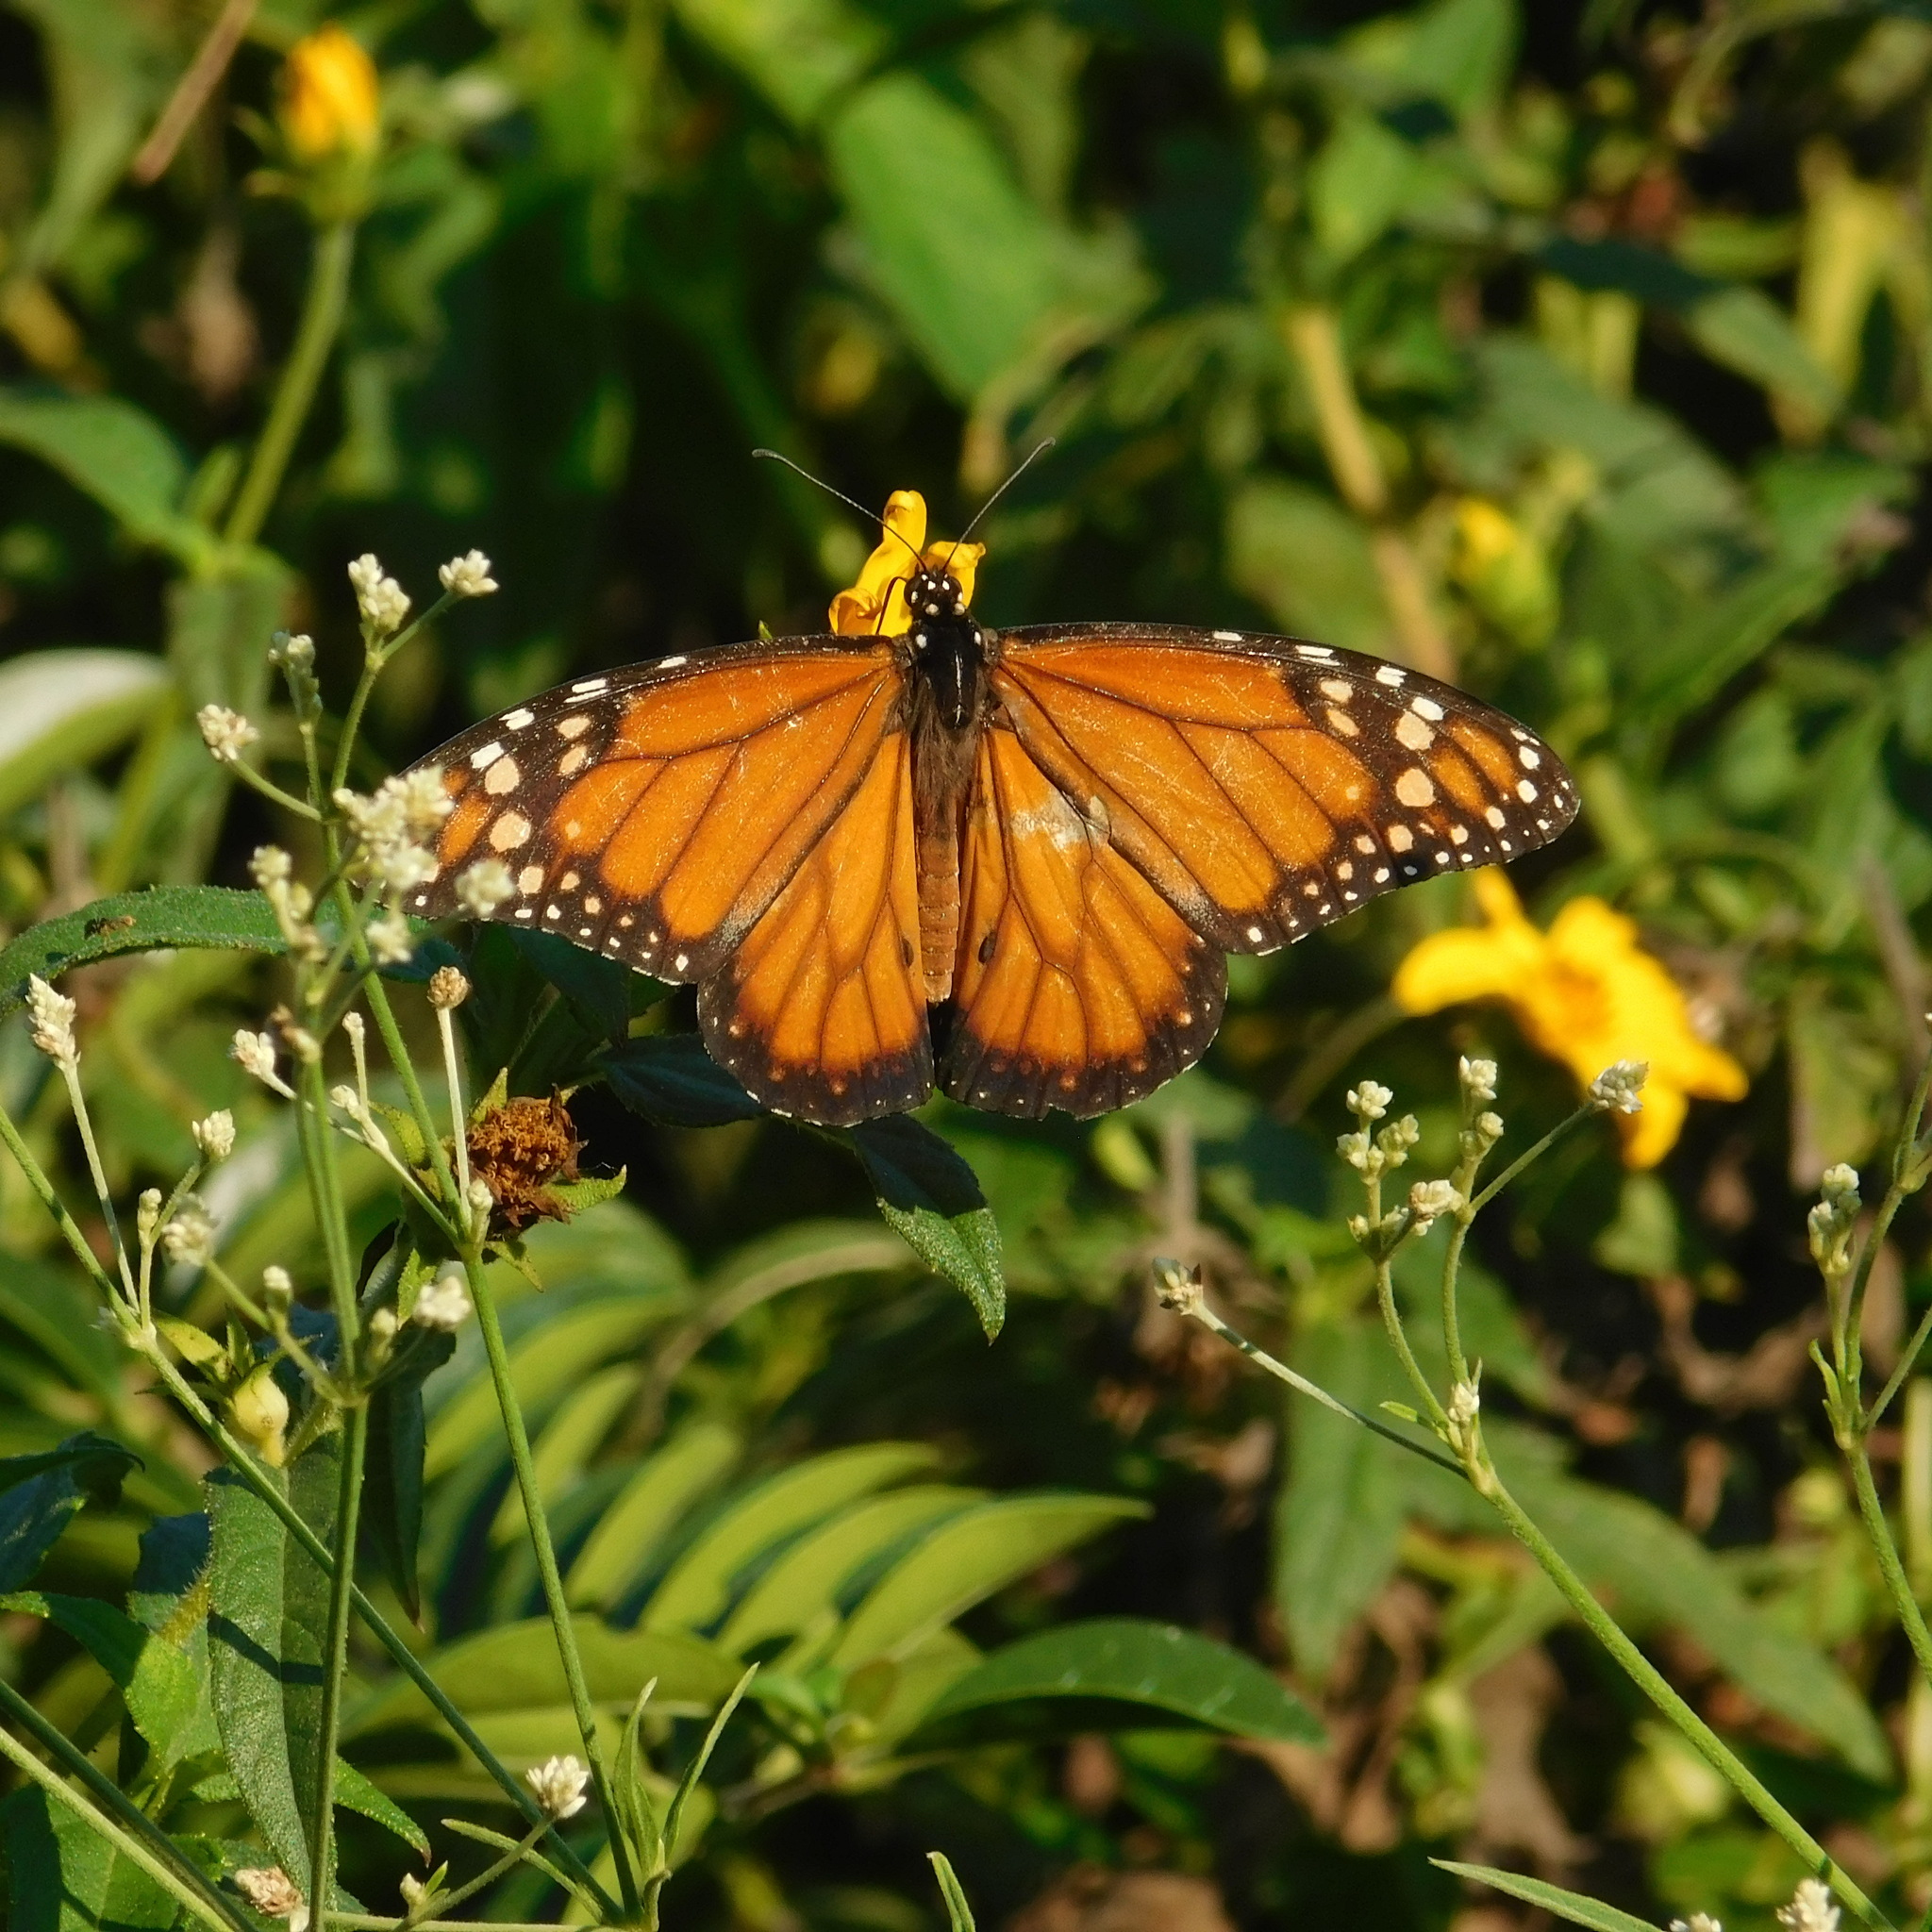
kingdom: Animalia
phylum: Arthropoda
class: Insecta
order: Lepidoptera
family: Nymphalidae
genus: Danaus
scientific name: Danaus erippus
